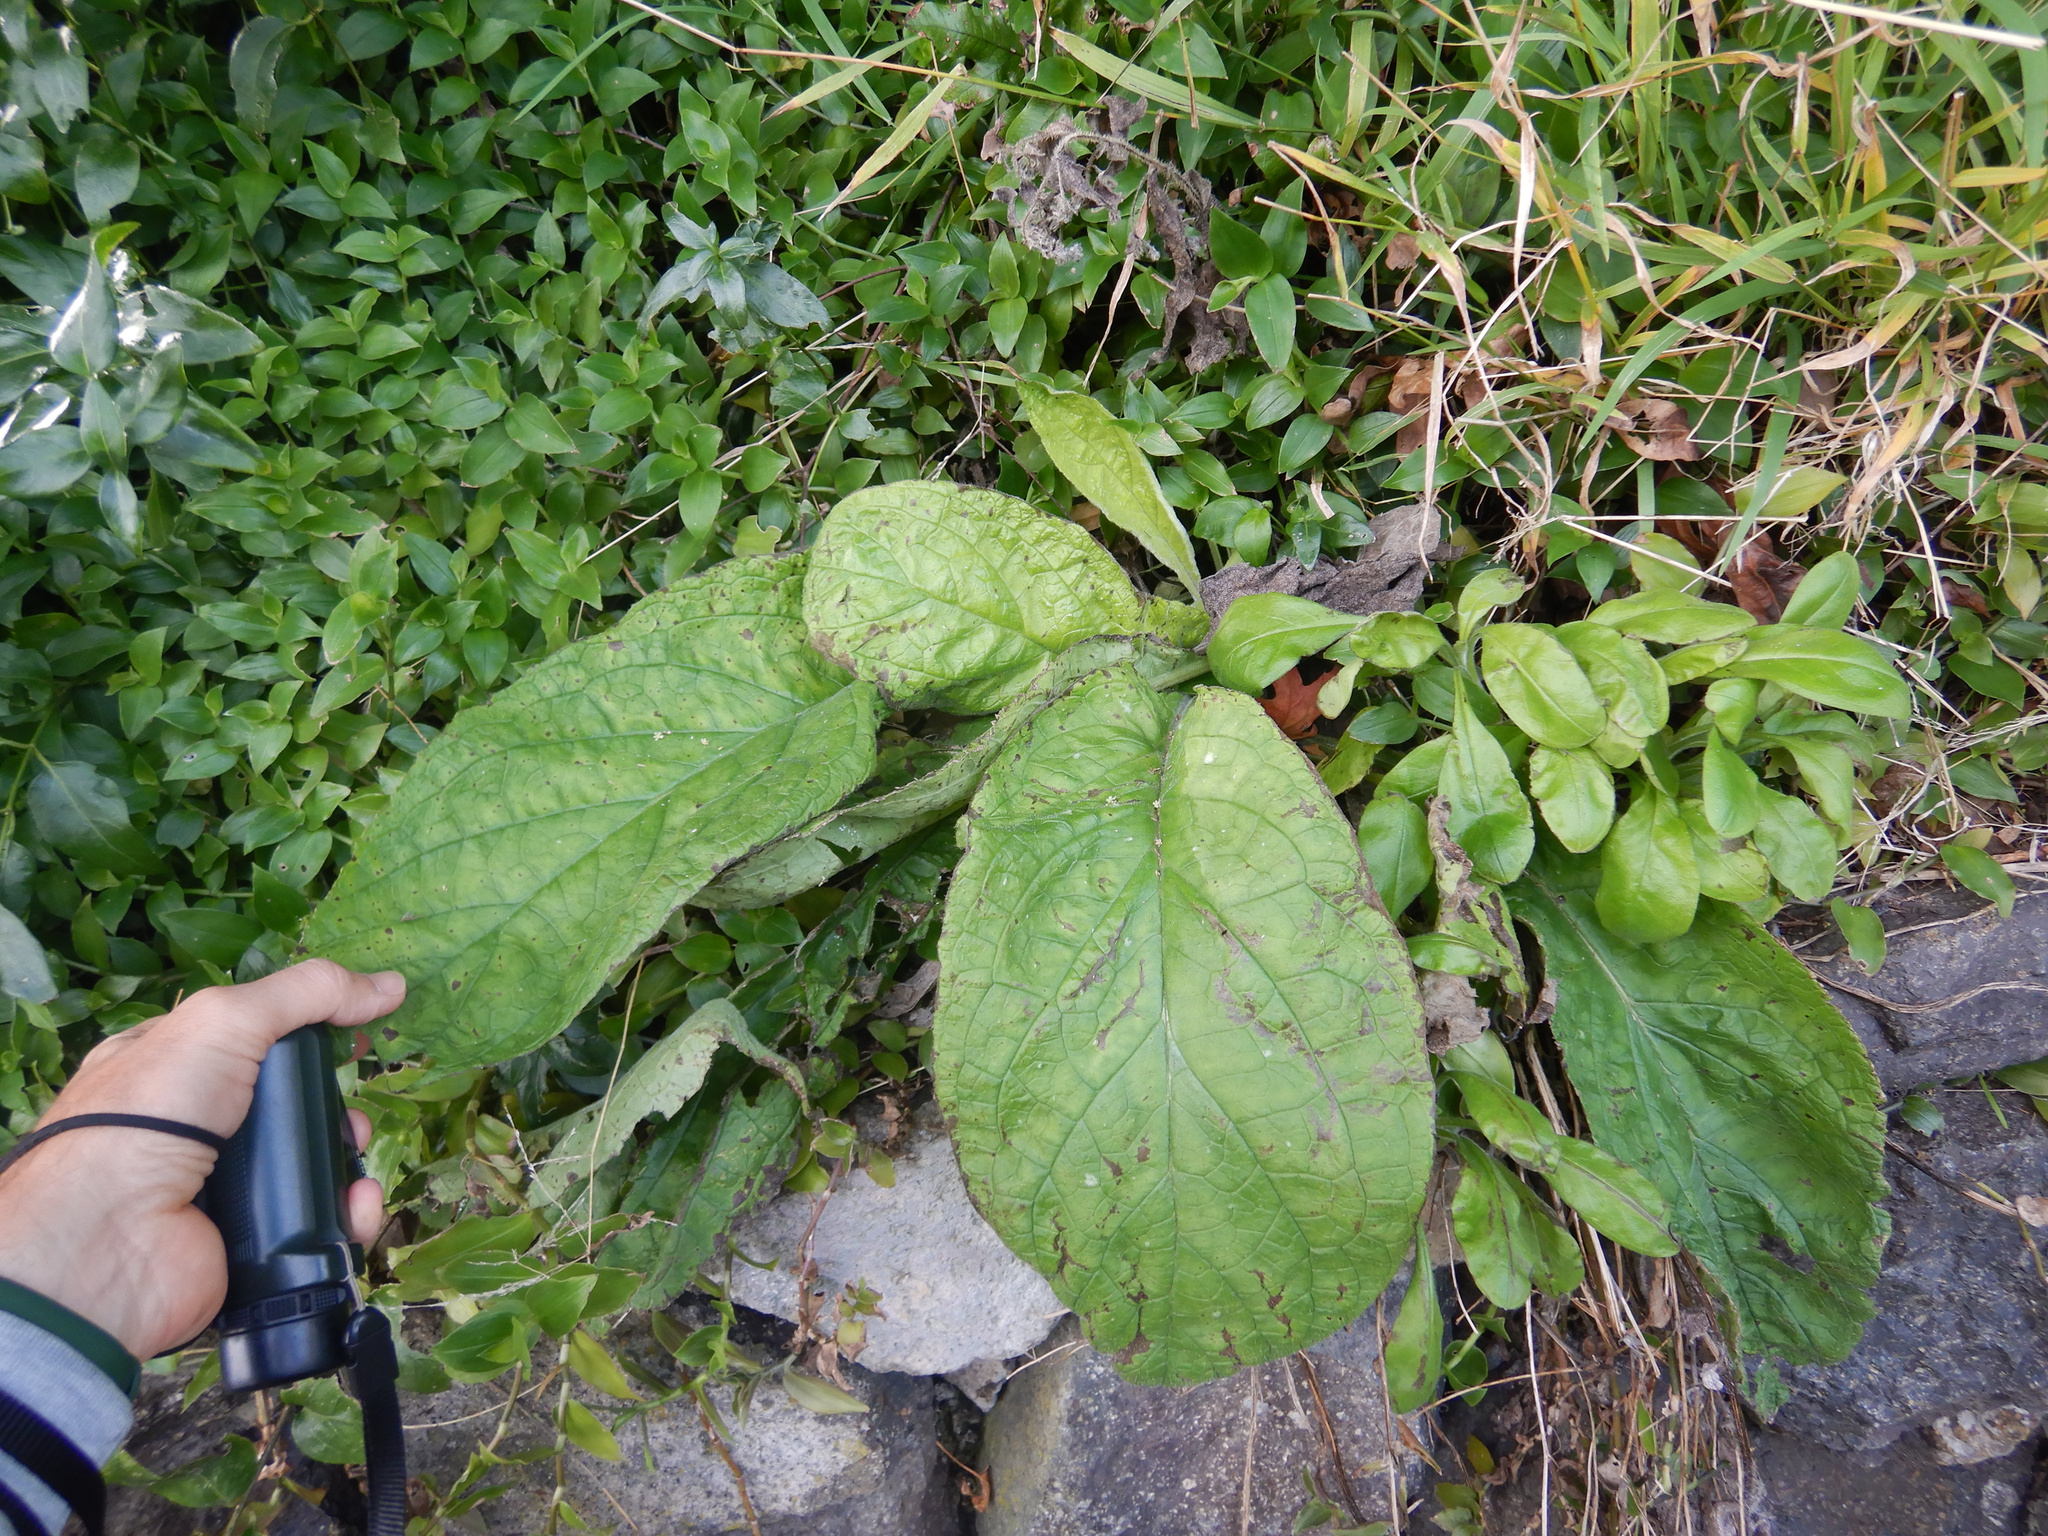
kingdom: Plantae
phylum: Tracheophyta
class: Magnoliopsida
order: Boraginales
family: Boraginaceae
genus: Pentaglottis
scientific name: Pentaglottis sempervirens
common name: Green alkanet
